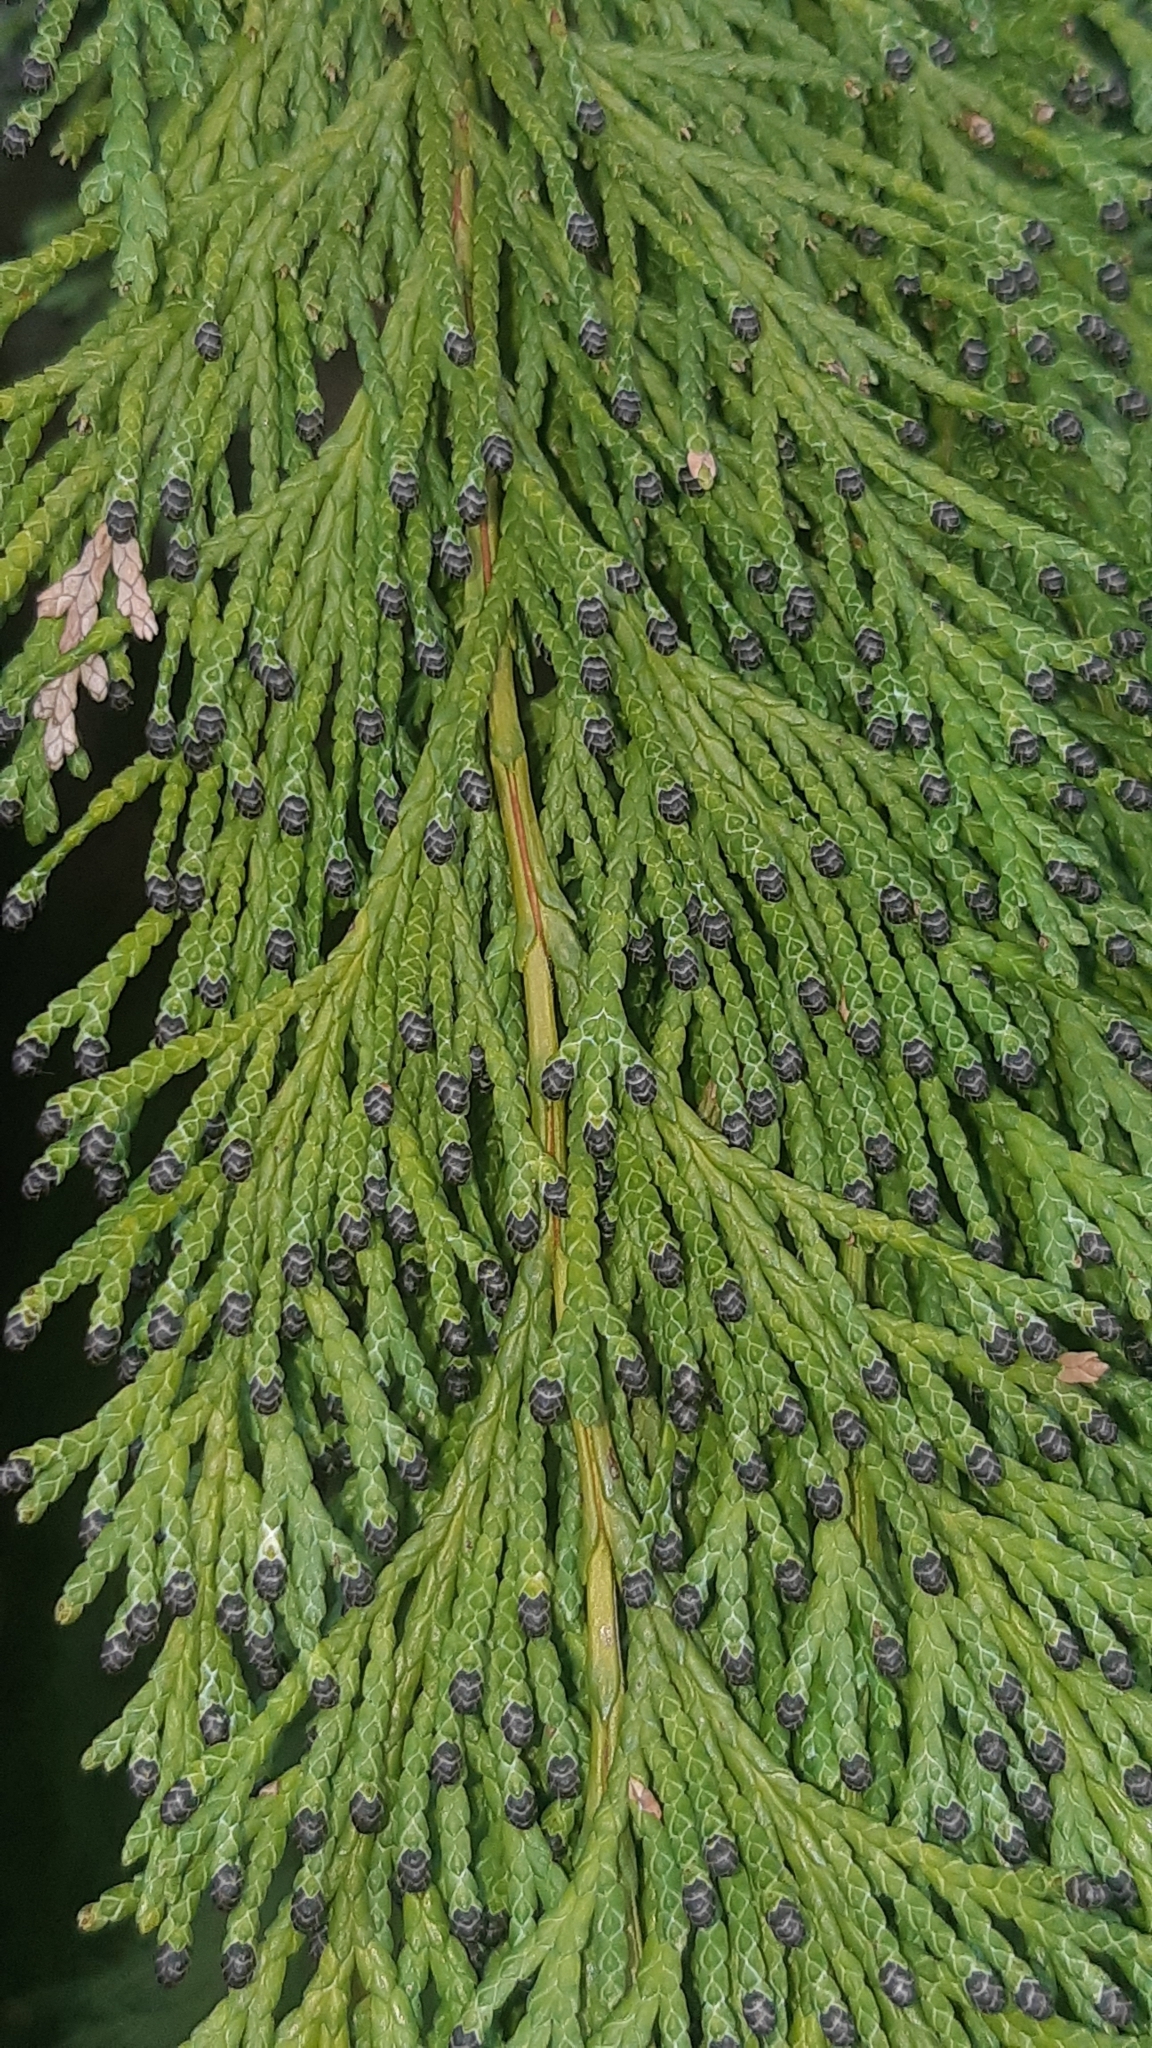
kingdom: Plantae
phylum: Tracheophyta
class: Pinopsida
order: Pinales
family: Cupressaceae
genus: Chamaecyparis
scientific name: Chamaecyparis lawsoniana
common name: Lawson's cypress
